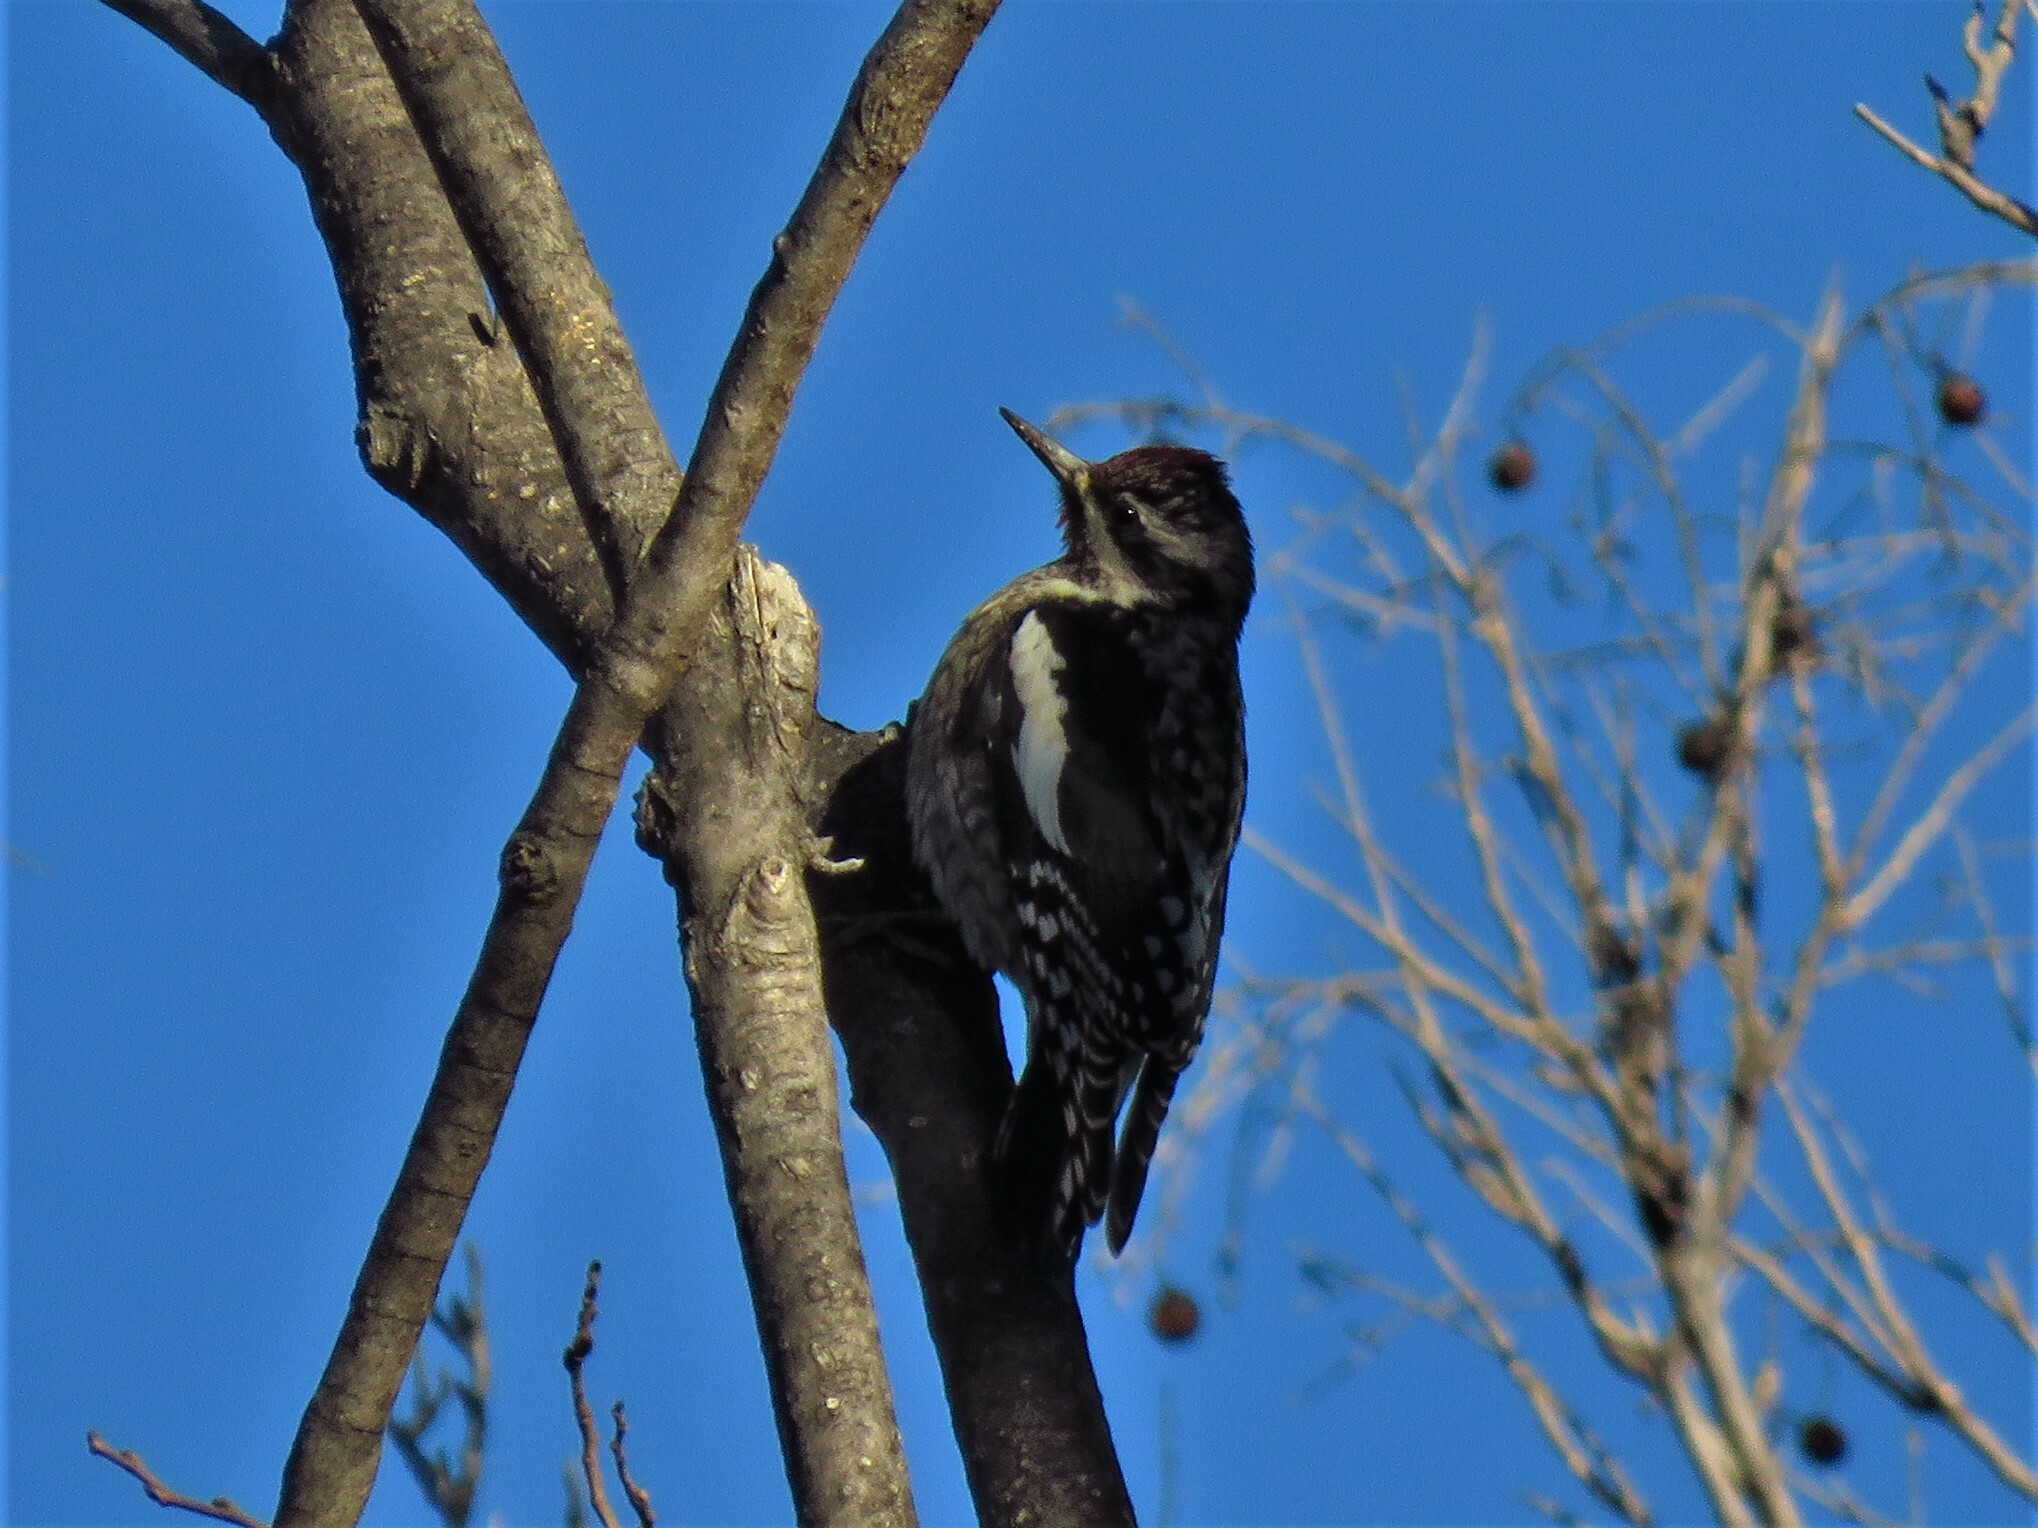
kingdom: Animalia
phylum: Chordata
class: Aves
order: Piciformes
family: Picidae
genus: Sphyrapicus
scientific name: Sphyrapicus varius
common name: Yellow-bellied sapsucker
